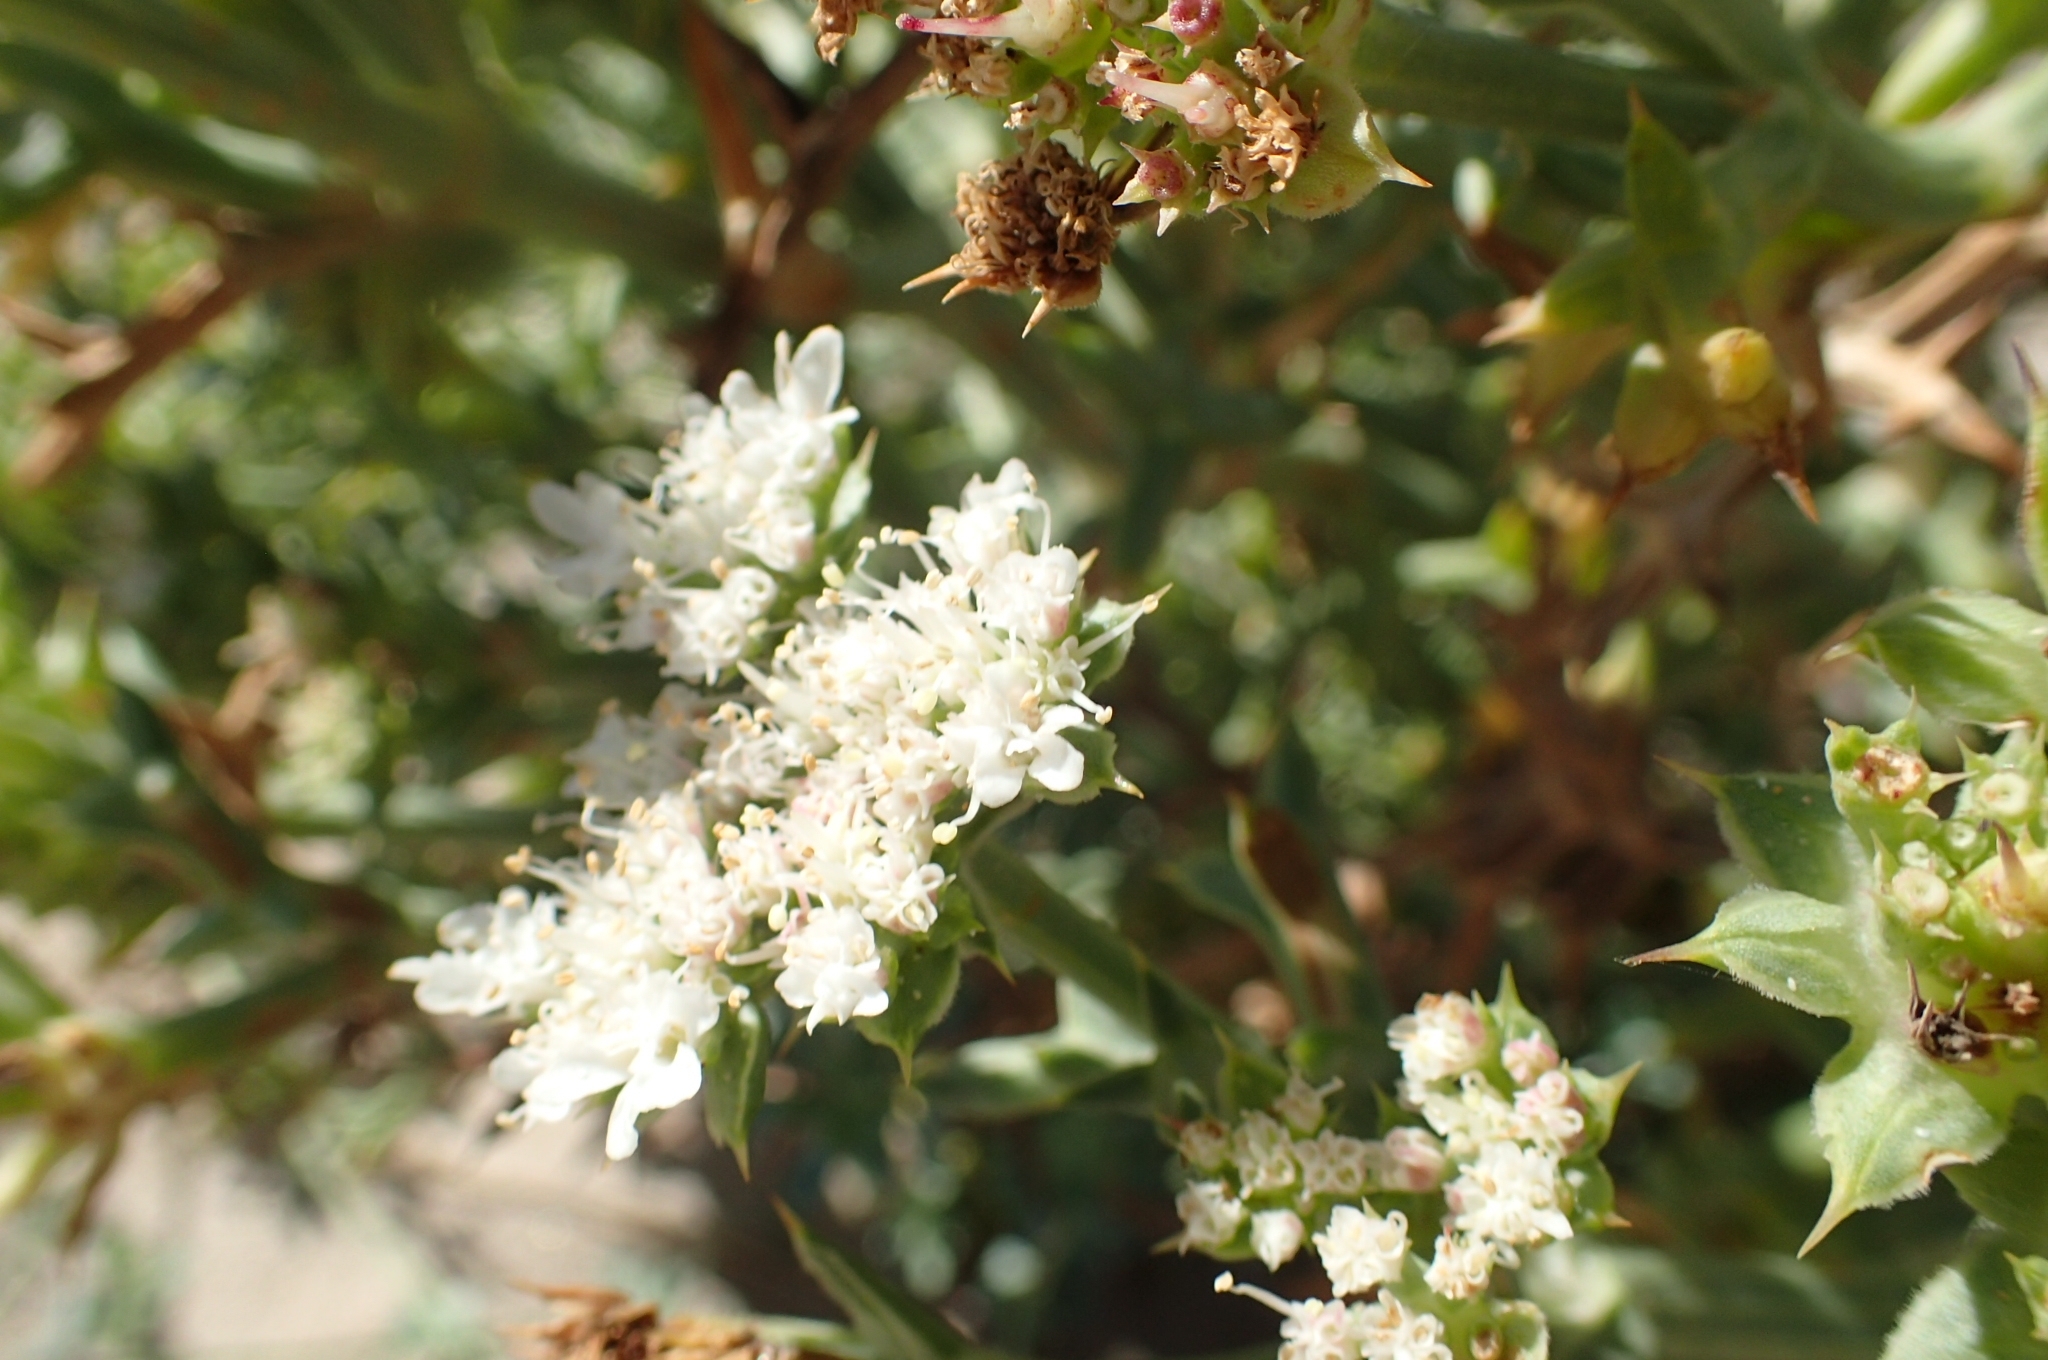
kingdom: Plantae
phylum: Tracheophyta
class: Magnoliopsida
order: Apiales
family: Apiaceae
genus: Echinophora
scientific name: Echinophora spinosa
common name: Prickly samphire
